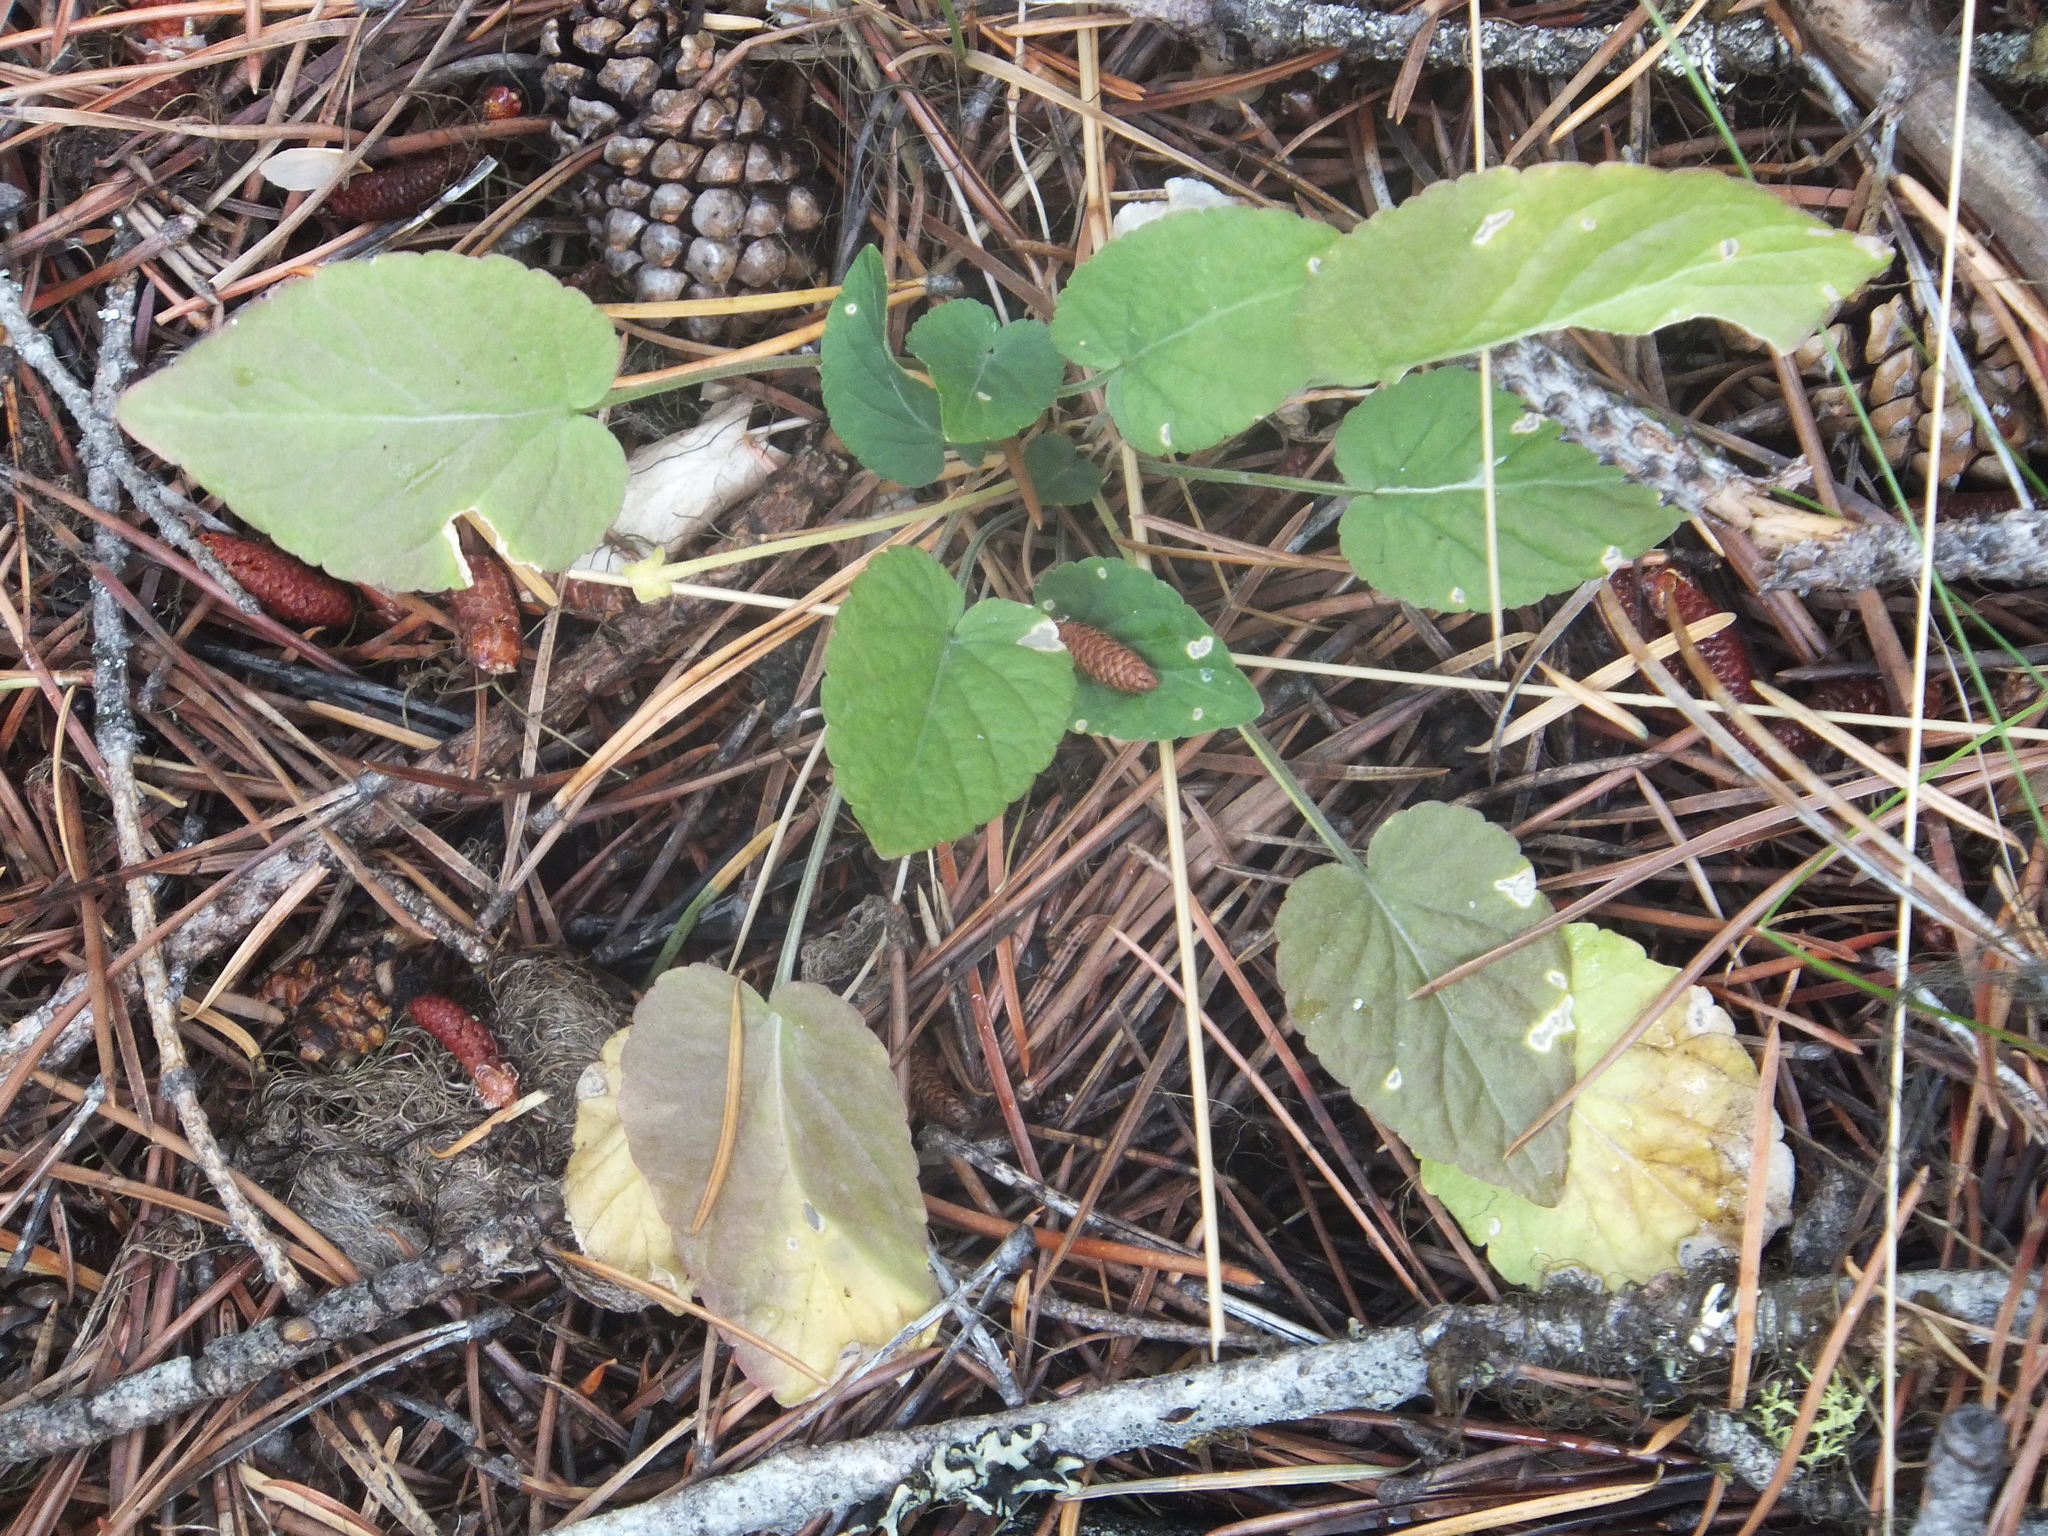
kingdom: Plantae
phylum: Tracheophyta
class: Magnoliopsida
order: Malpighiales
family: Violaceae
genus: Viola
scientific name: Viola adunca
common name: Sand violet
